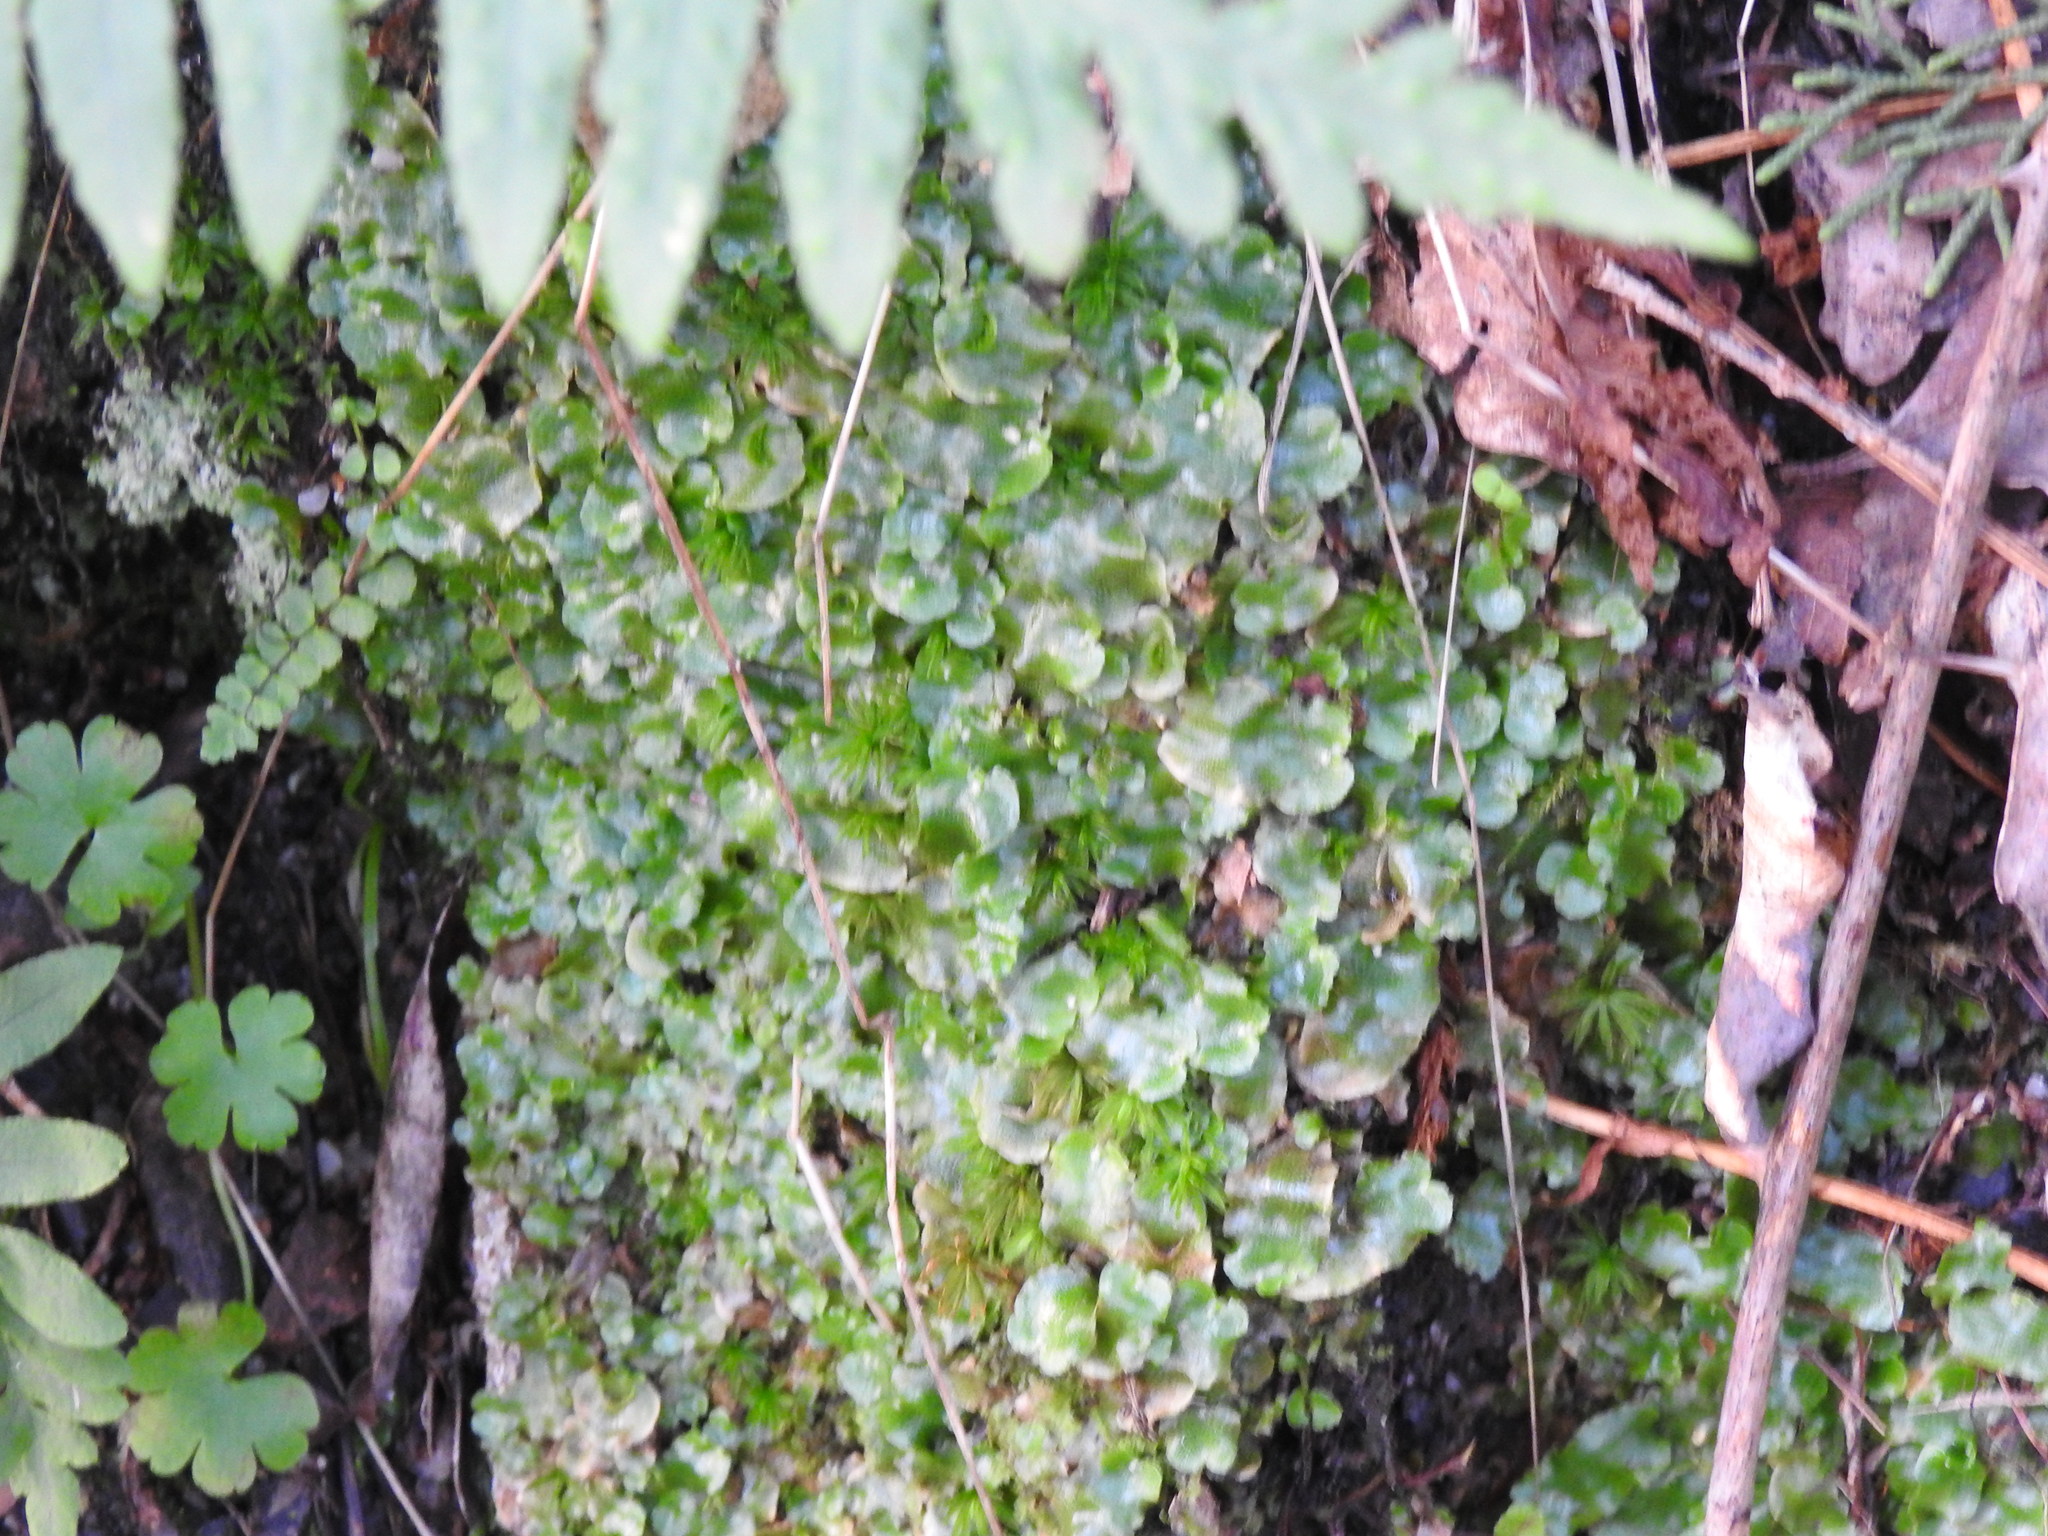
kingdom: Plantae
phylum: Marchantiophyta
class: Marchantiopsida
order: Lunulariales
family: Lunulariaceae
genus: Lunularia
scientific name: Lunularia cruciata
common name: Crescent-cup liverwort
